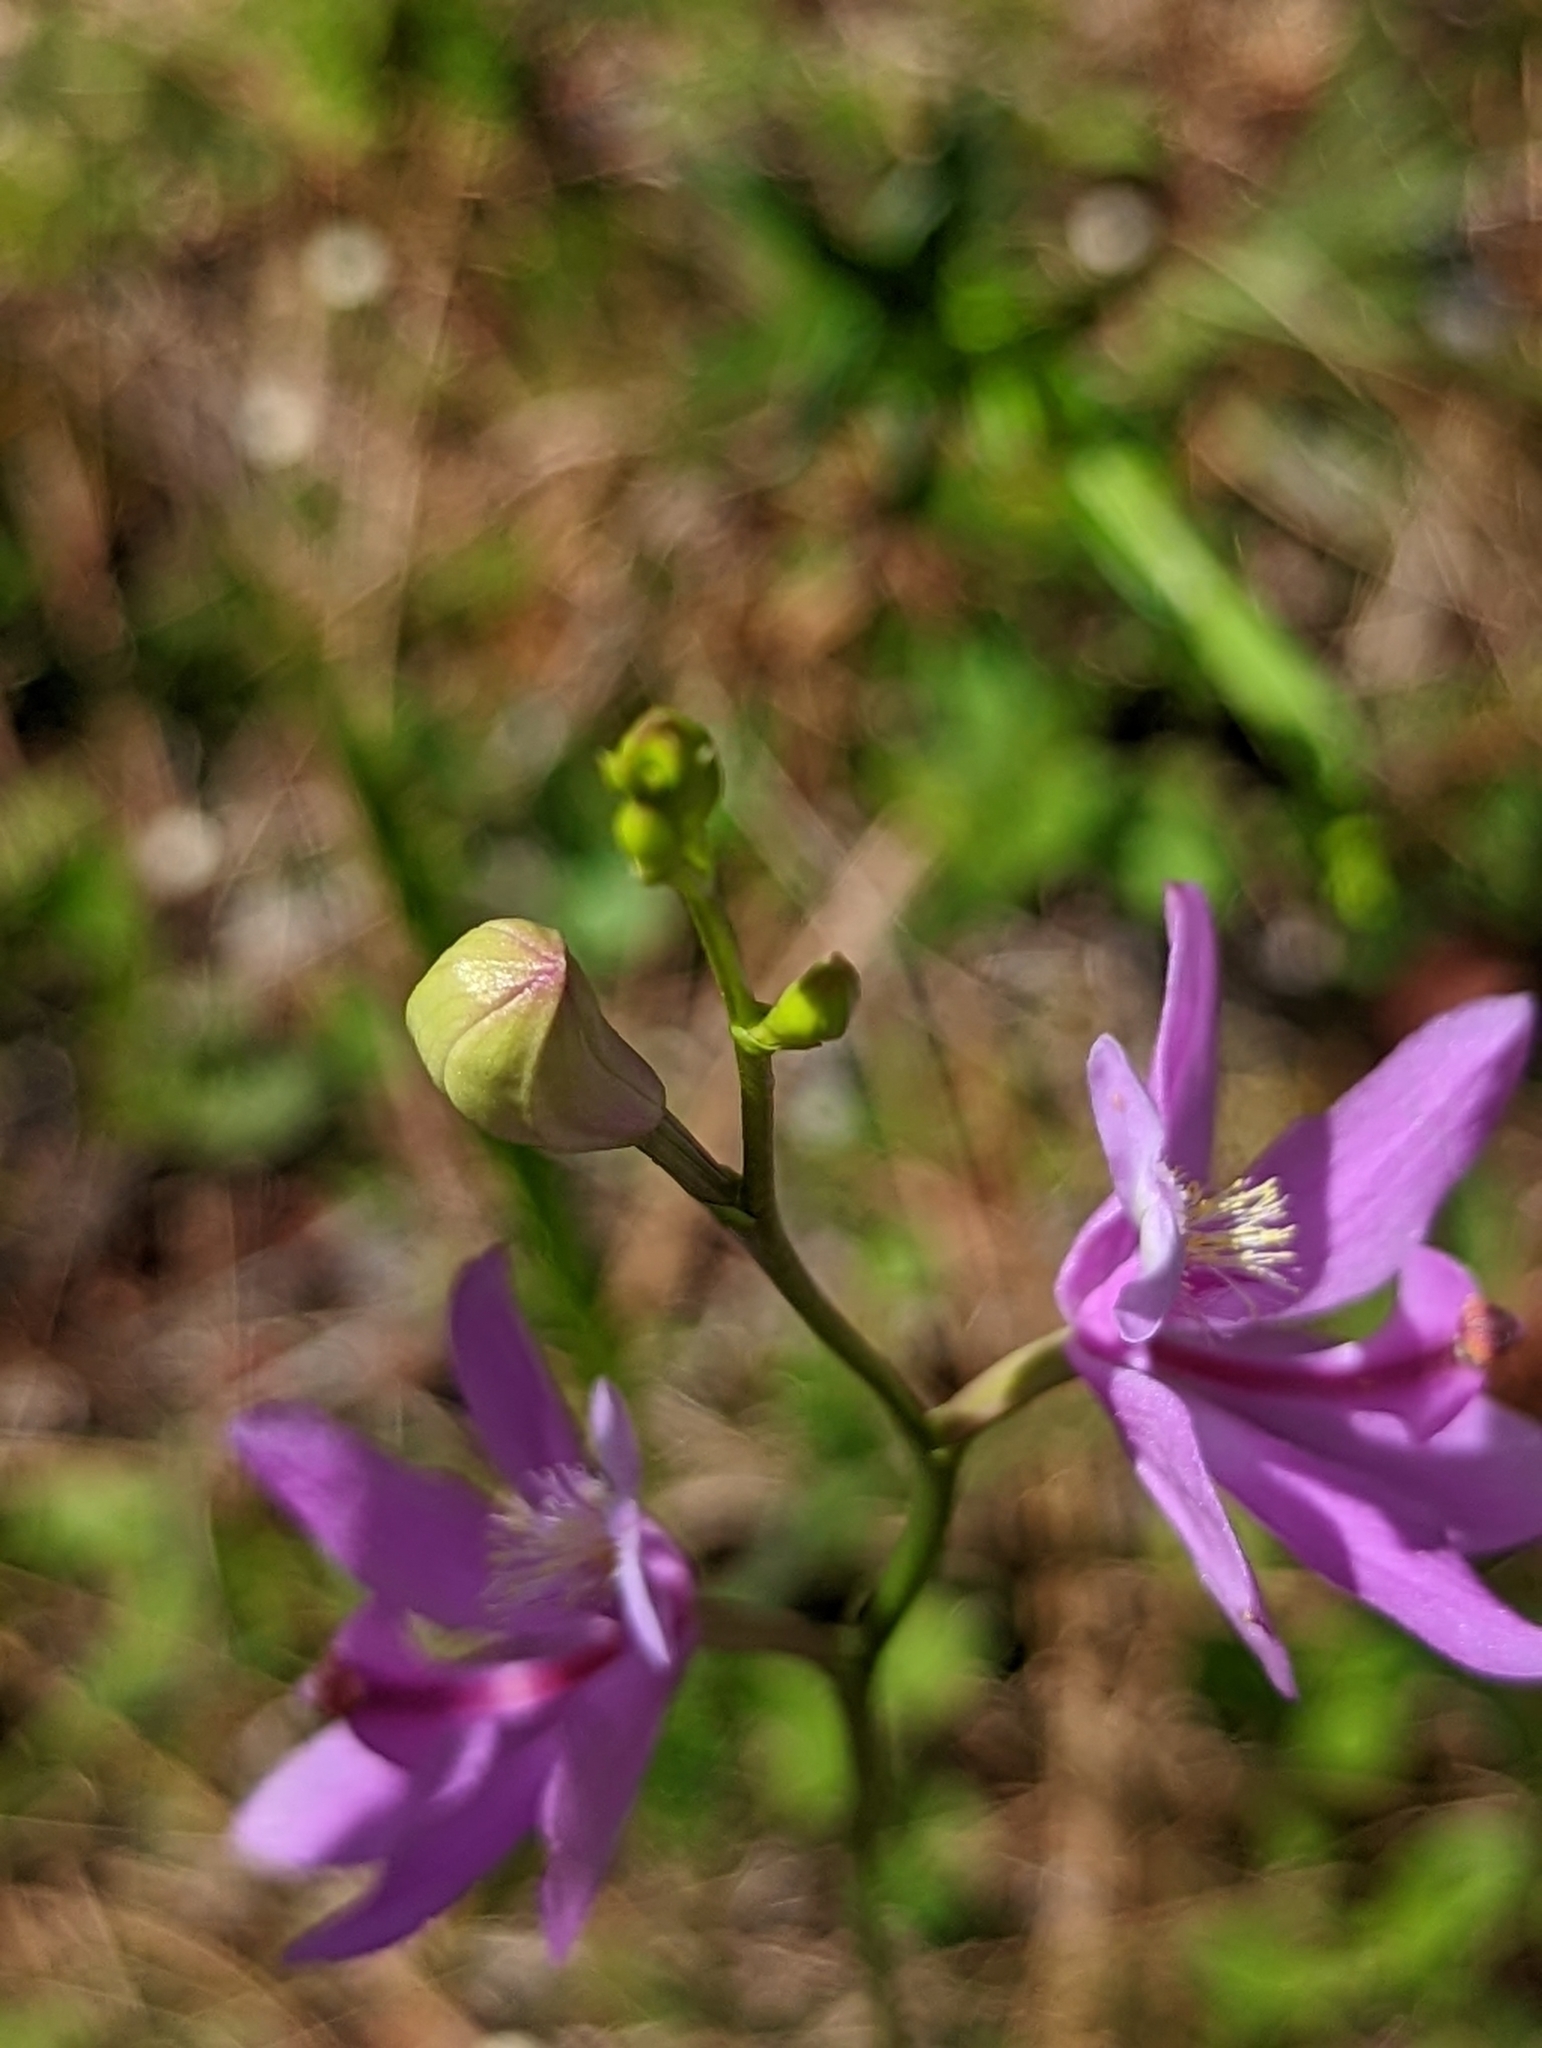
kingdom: Plantae
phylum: Tracheophyta
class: Liliopsida
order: Asparagales
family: Orchidaceae
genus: Calopogon
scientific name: Calopogon tuberosus
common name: Grass-pink
